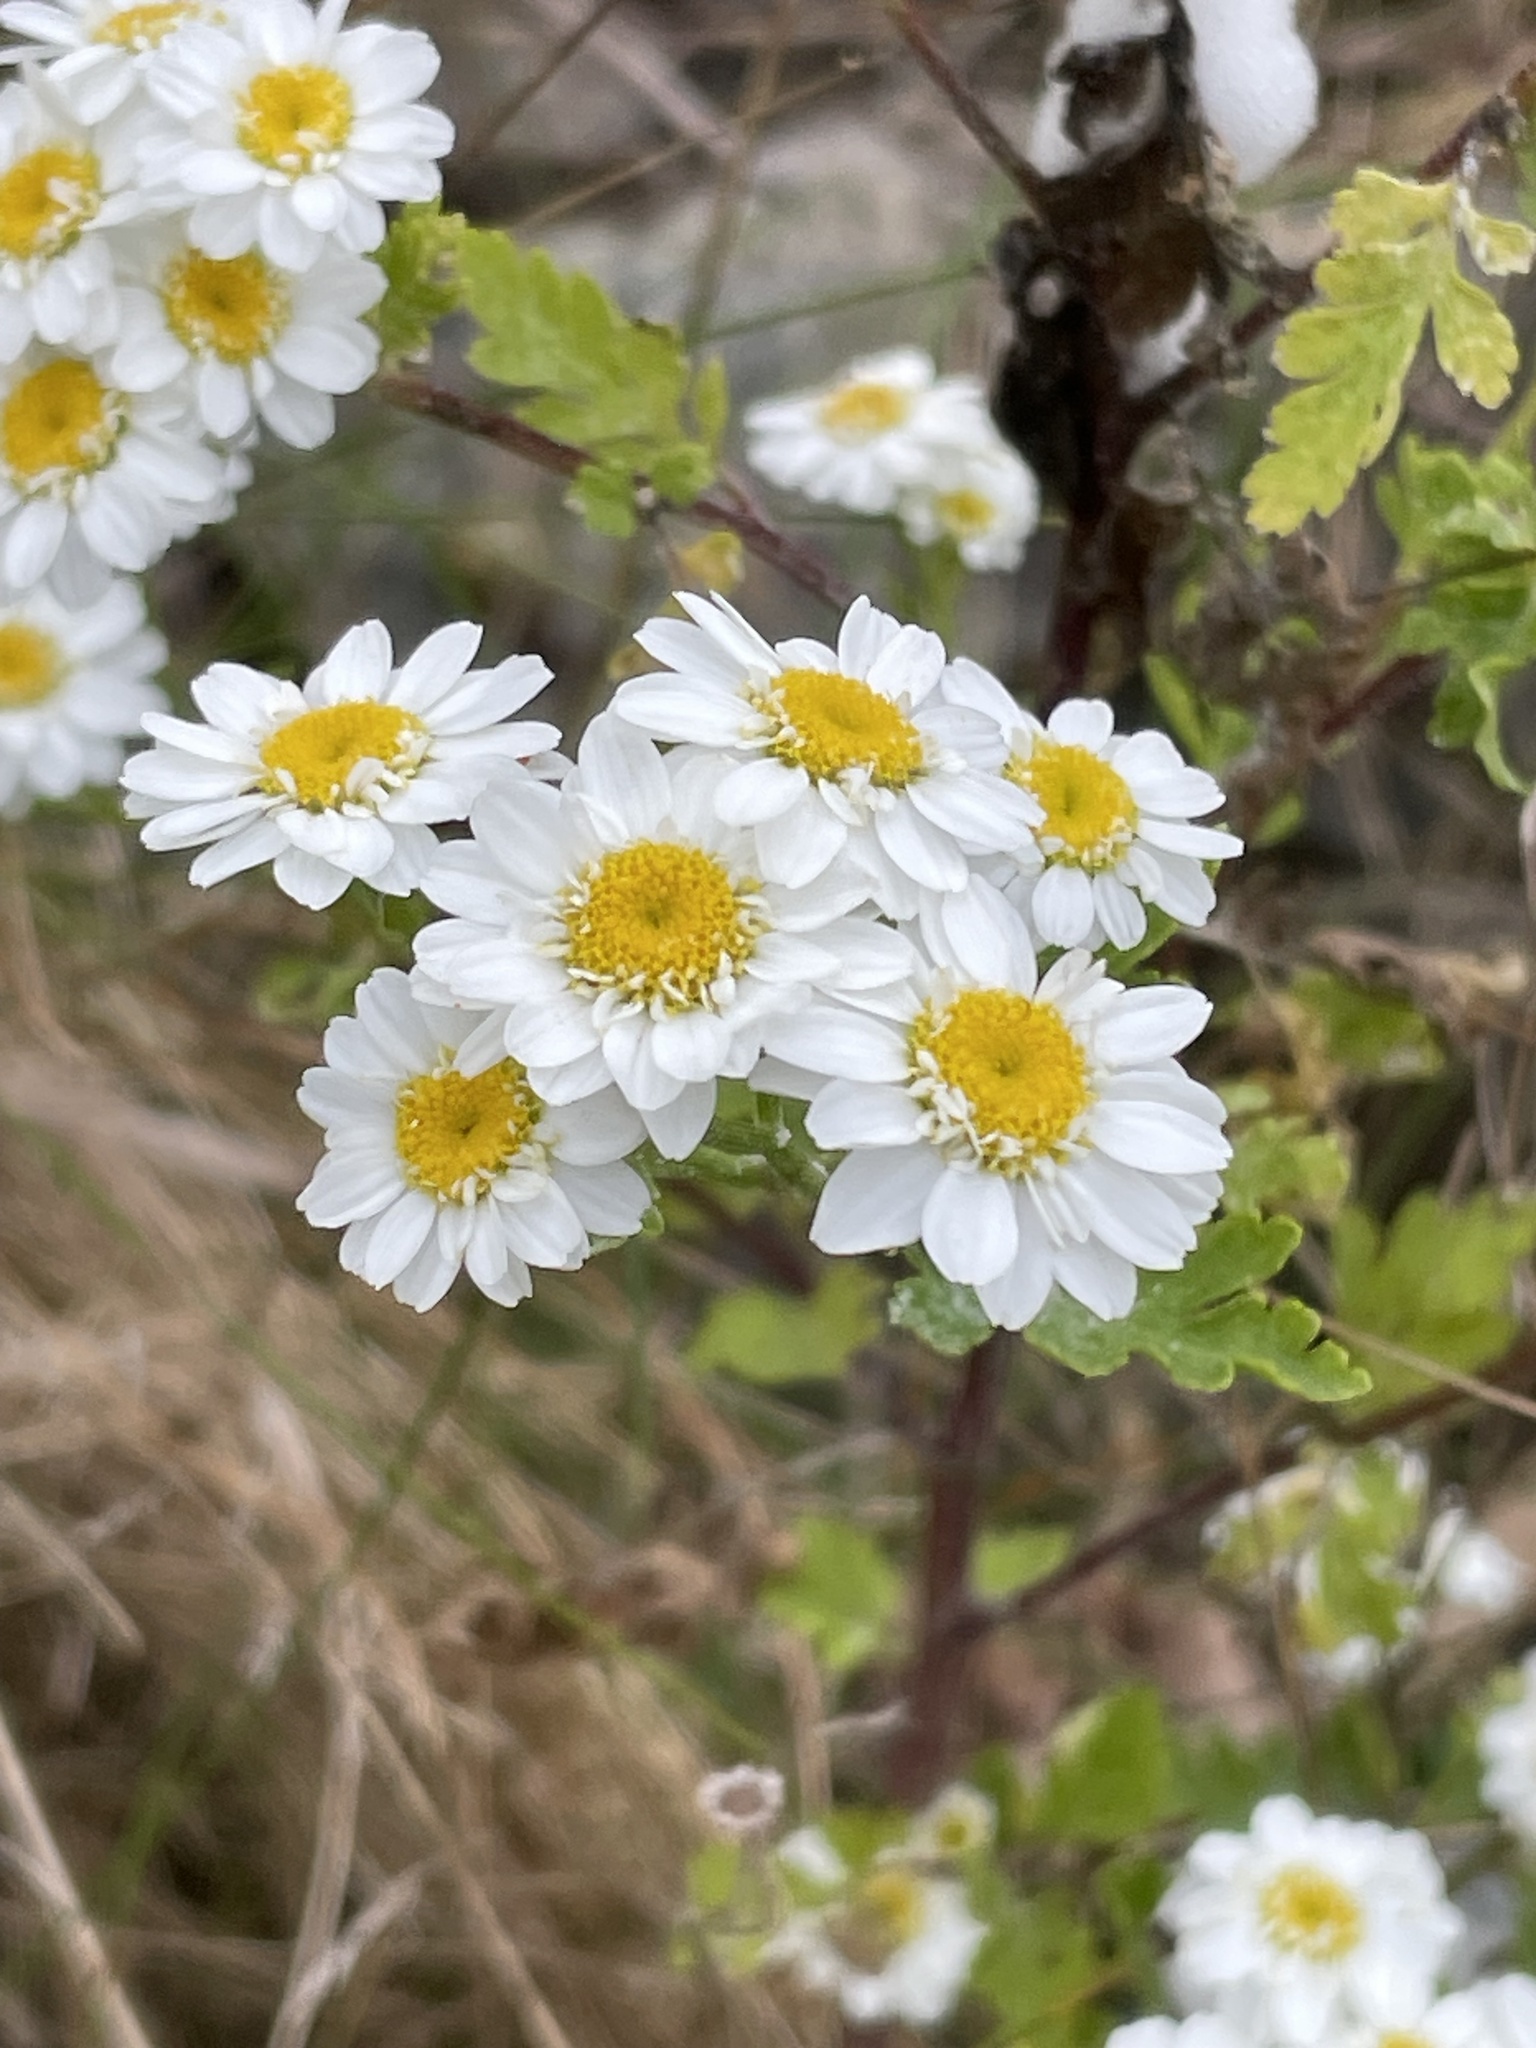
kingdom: Plantae
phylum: Tracheophyta
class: Magnoliopsida
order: Asterales
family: Asteraceae
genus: Tanacetum
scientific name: Tanacetum parthenium
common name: Feverfew
